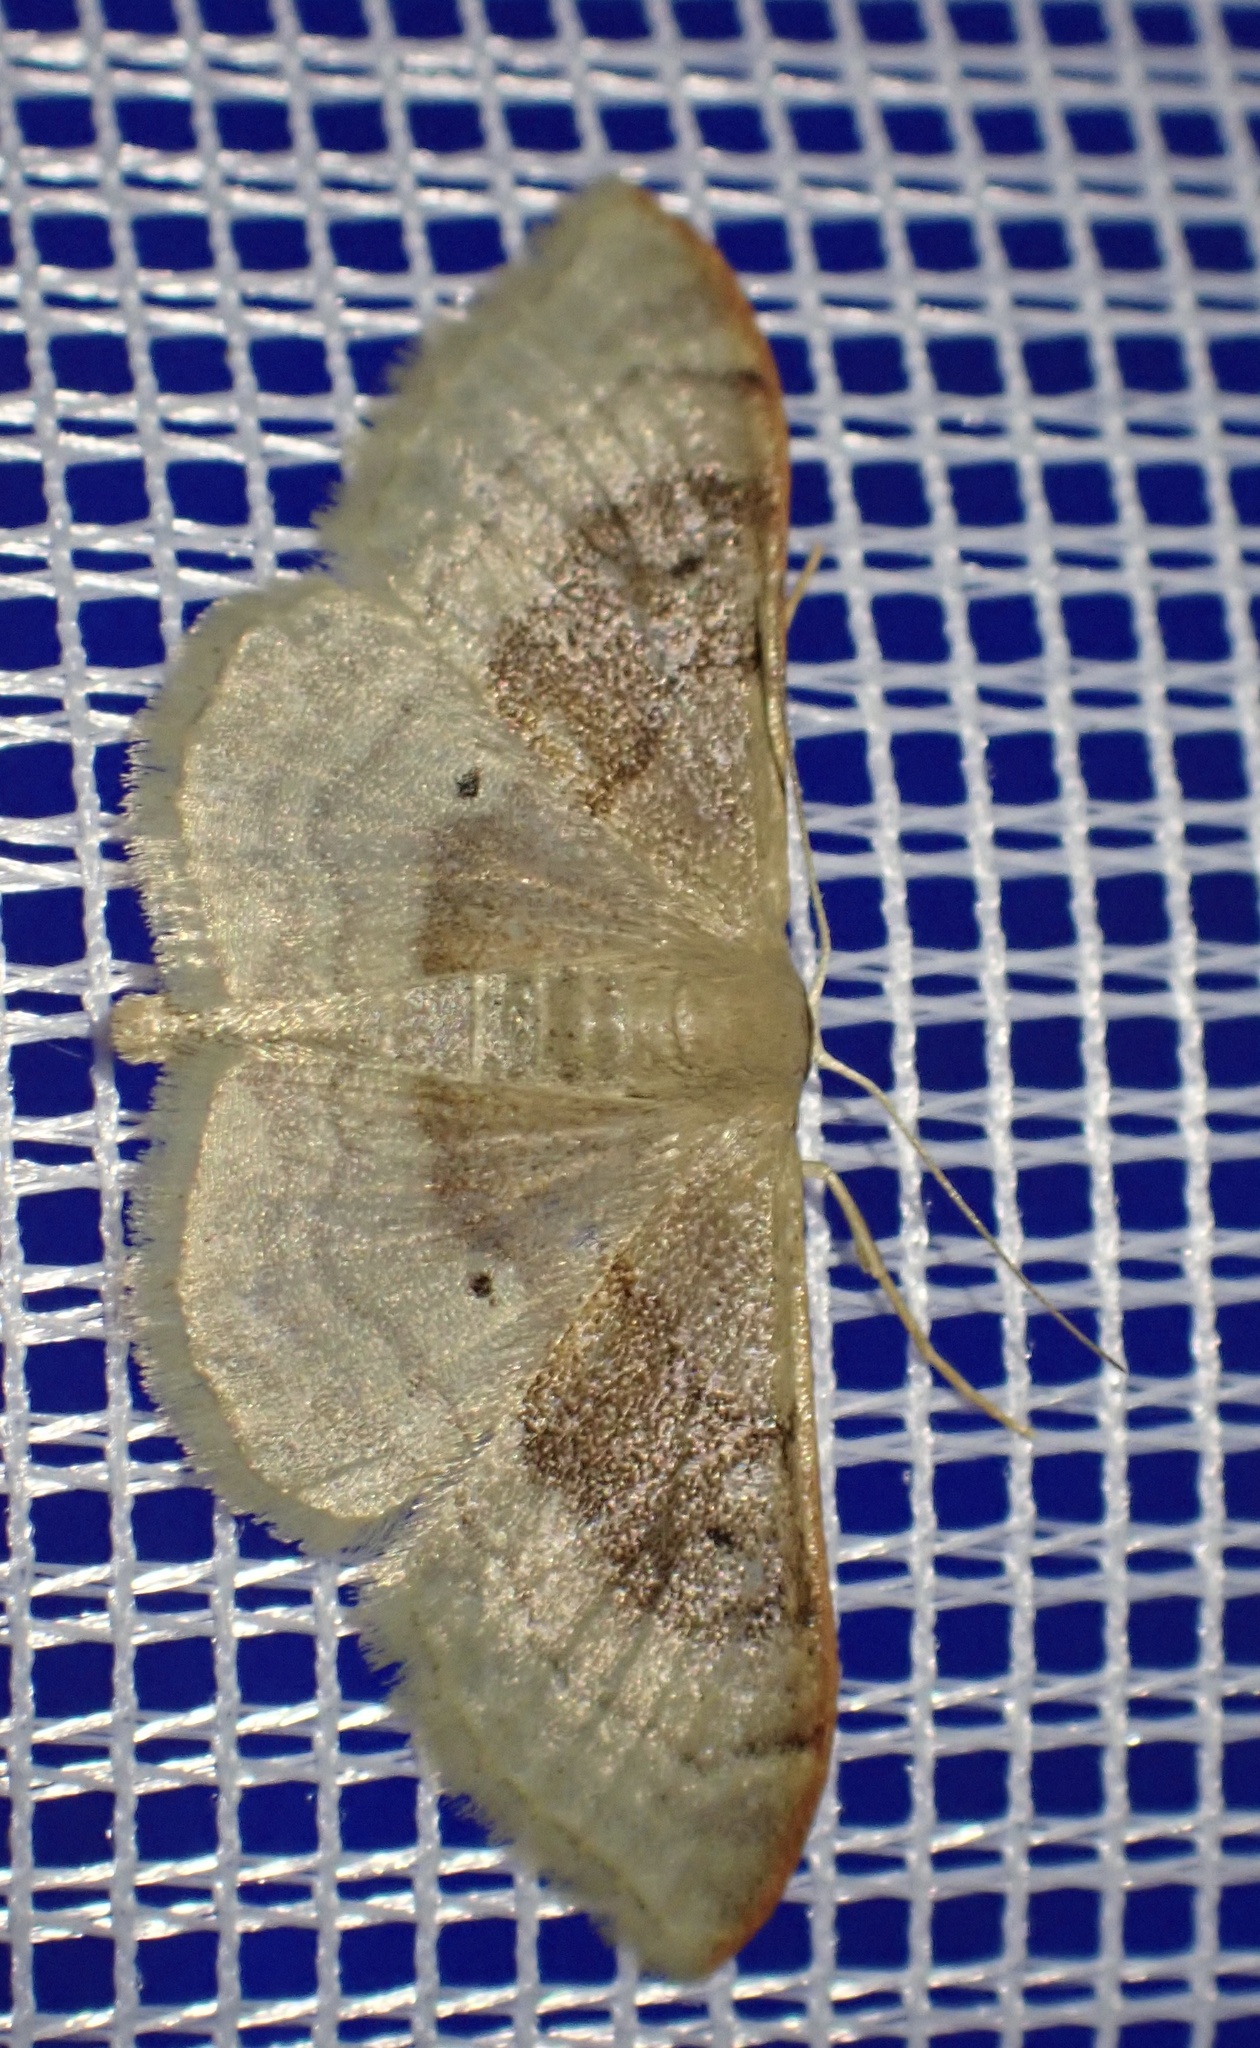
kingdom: Animalia
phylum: Arthropoda
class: Insecta
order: Lepidoptera
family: Geometridae
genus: Idaea
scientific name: Idaea degeneraria
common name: Portland ribbon wave
